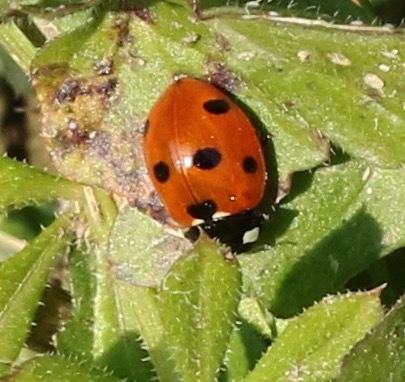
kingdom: Animalia
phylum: Arthropoda
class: Insecta
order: Coleoptera
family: Coccinellidae
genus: Coccinella
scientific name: Coccinella septempunctata
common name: Sevenspotted lady beetle
